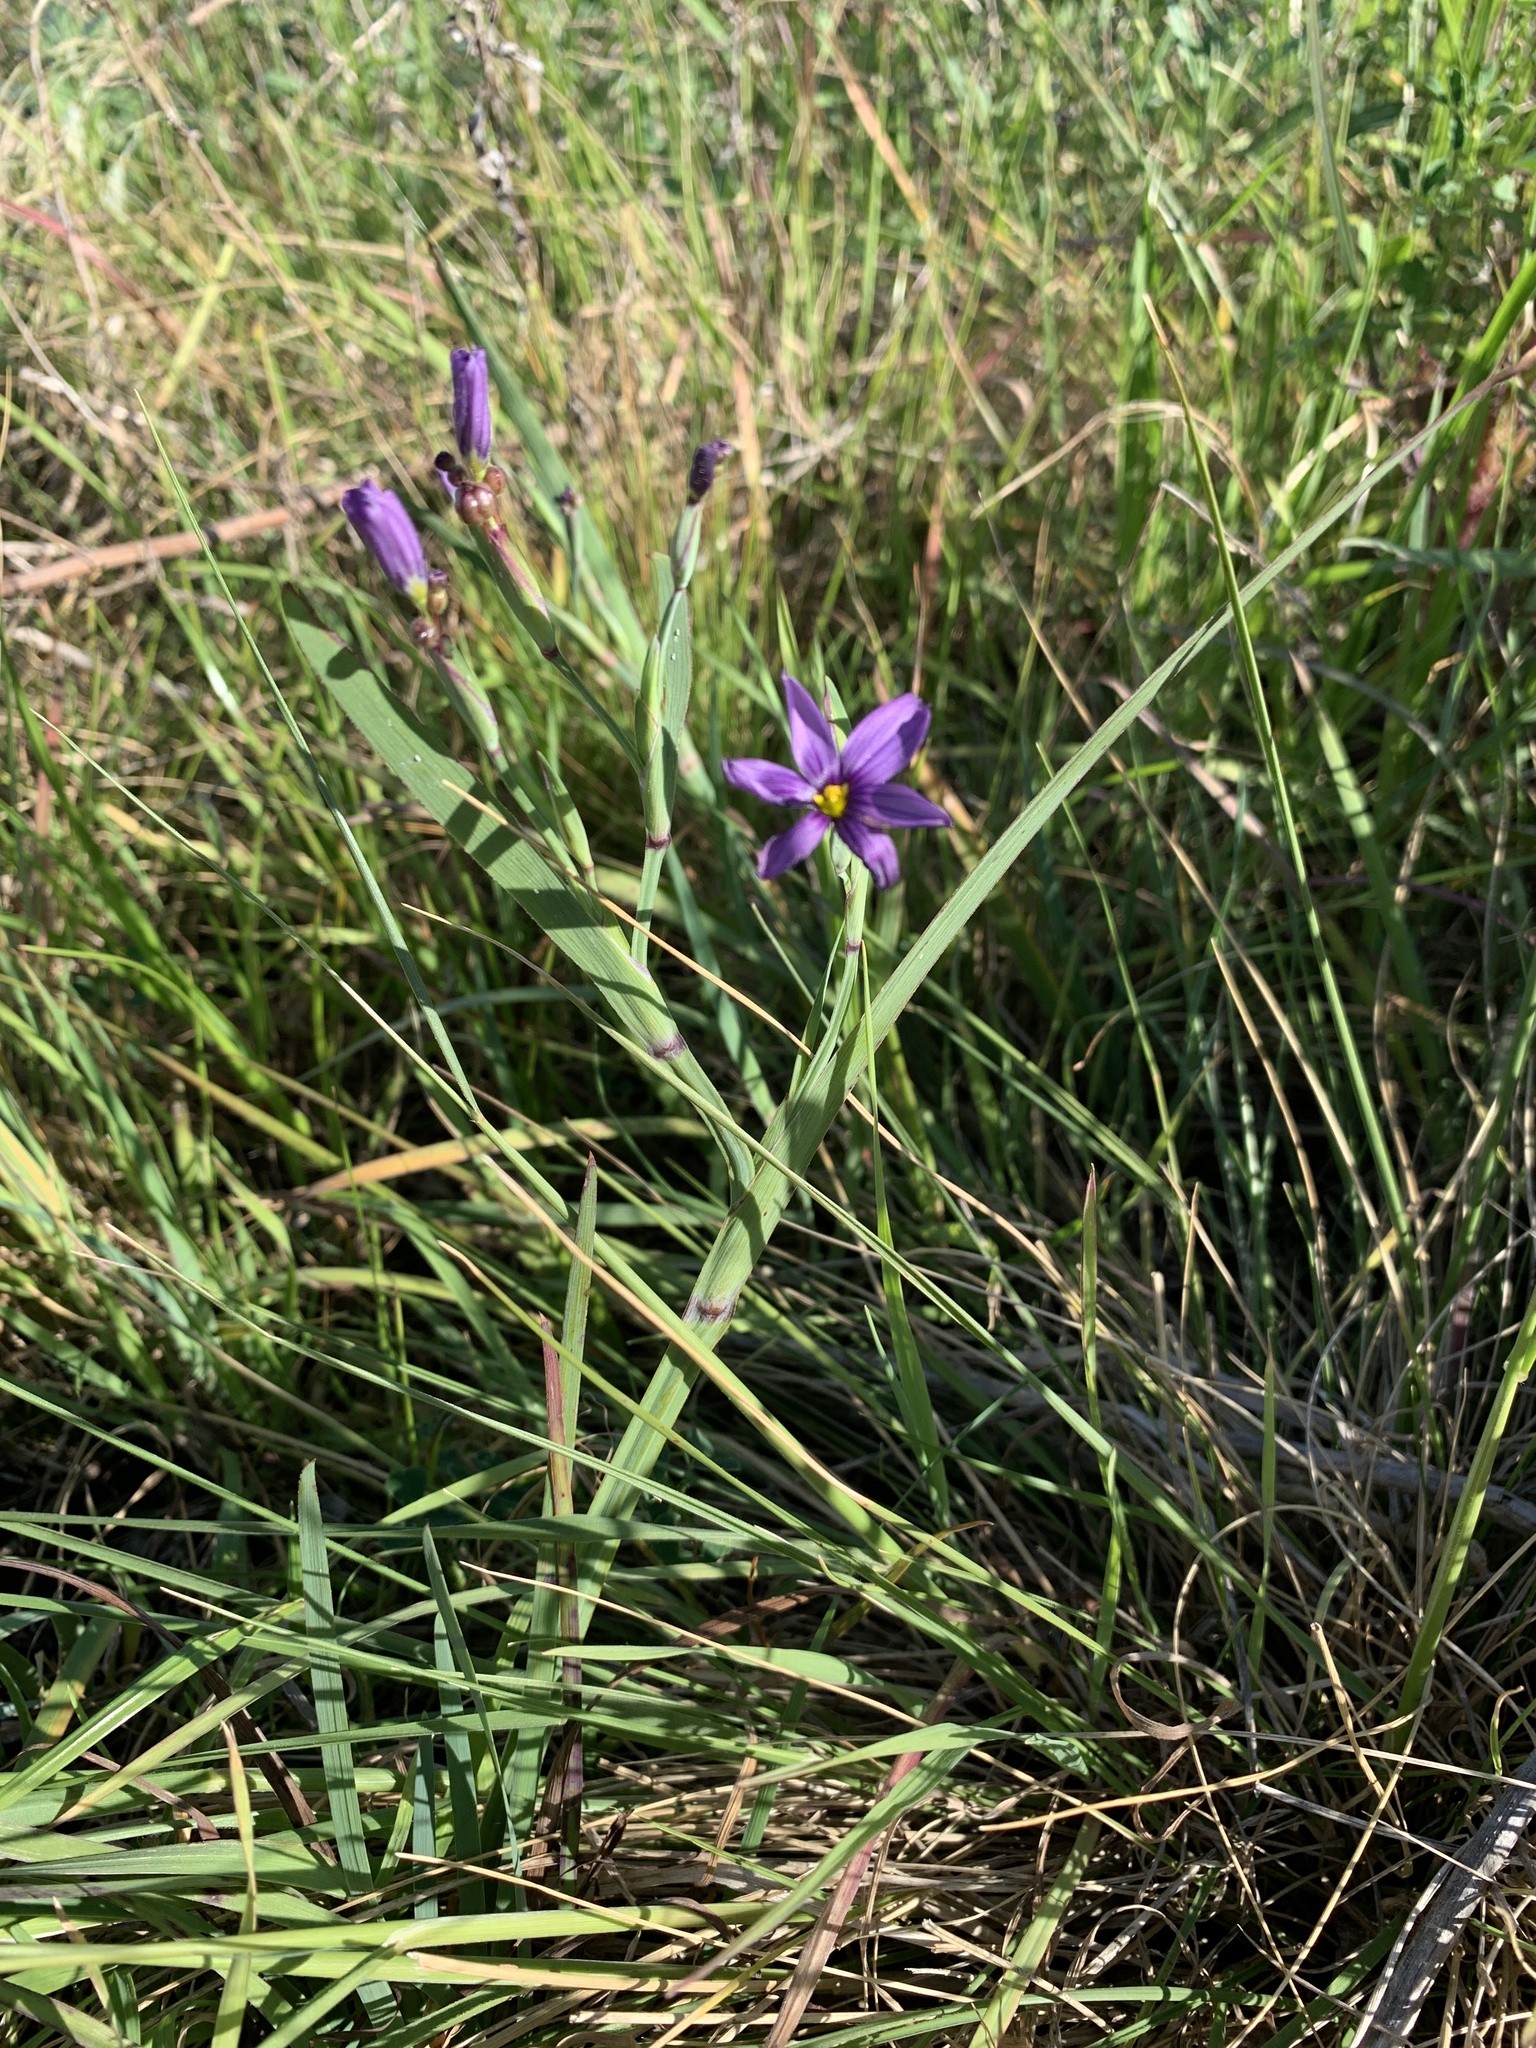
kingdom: Plantae
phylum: Tracheophyta
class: Liliopsida
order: Asparagales
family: Iridaceae
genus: Sisyrinchium
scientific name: Sisyrinchium bellum
